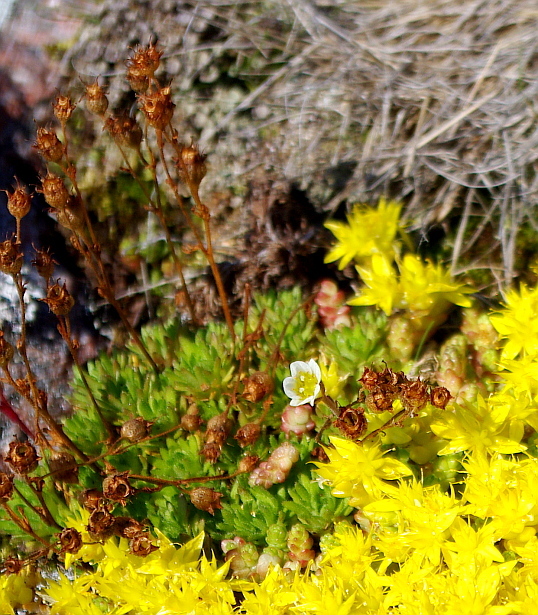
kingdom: Plantae
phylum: Tracheophyta
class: Magnoliopsida
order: Saxifragales
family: Saxifragaceae
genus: Saxifraga
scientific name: Saxifraga cespitosa
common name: Tufted saxifrage
